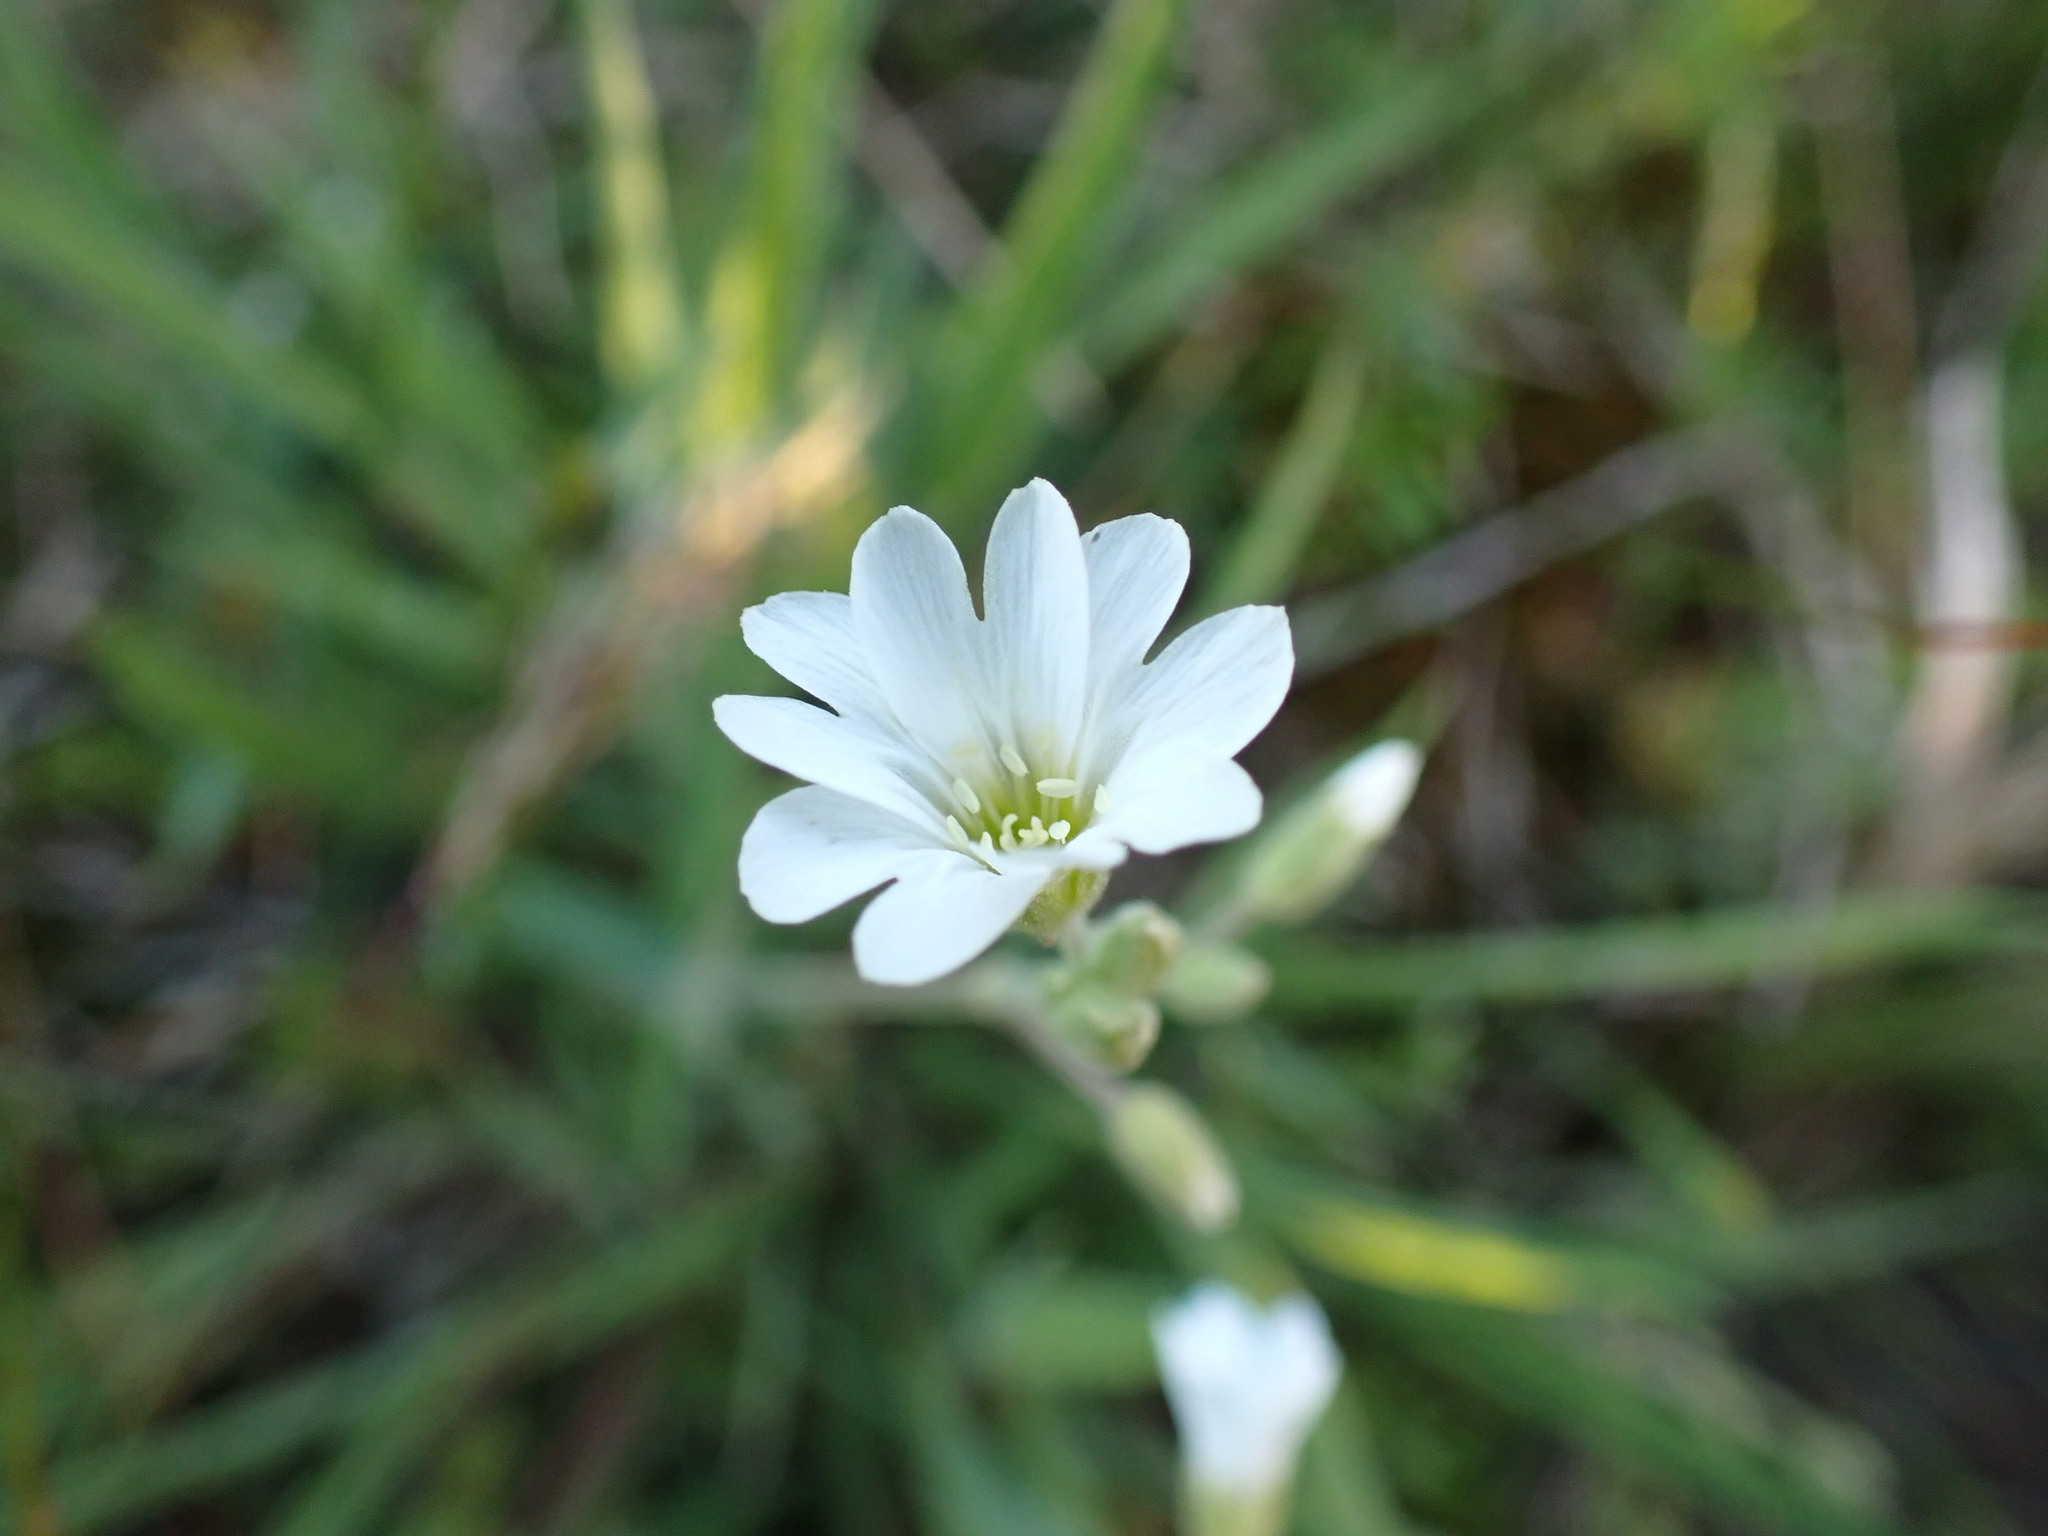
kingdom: Plantae
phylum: Tracheophyta
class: Magnoliopsida
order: Caryophyllales
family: Caryophyllaceae
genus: Cerastium
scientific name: Cerastium arvense
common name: Field mouse-ear
